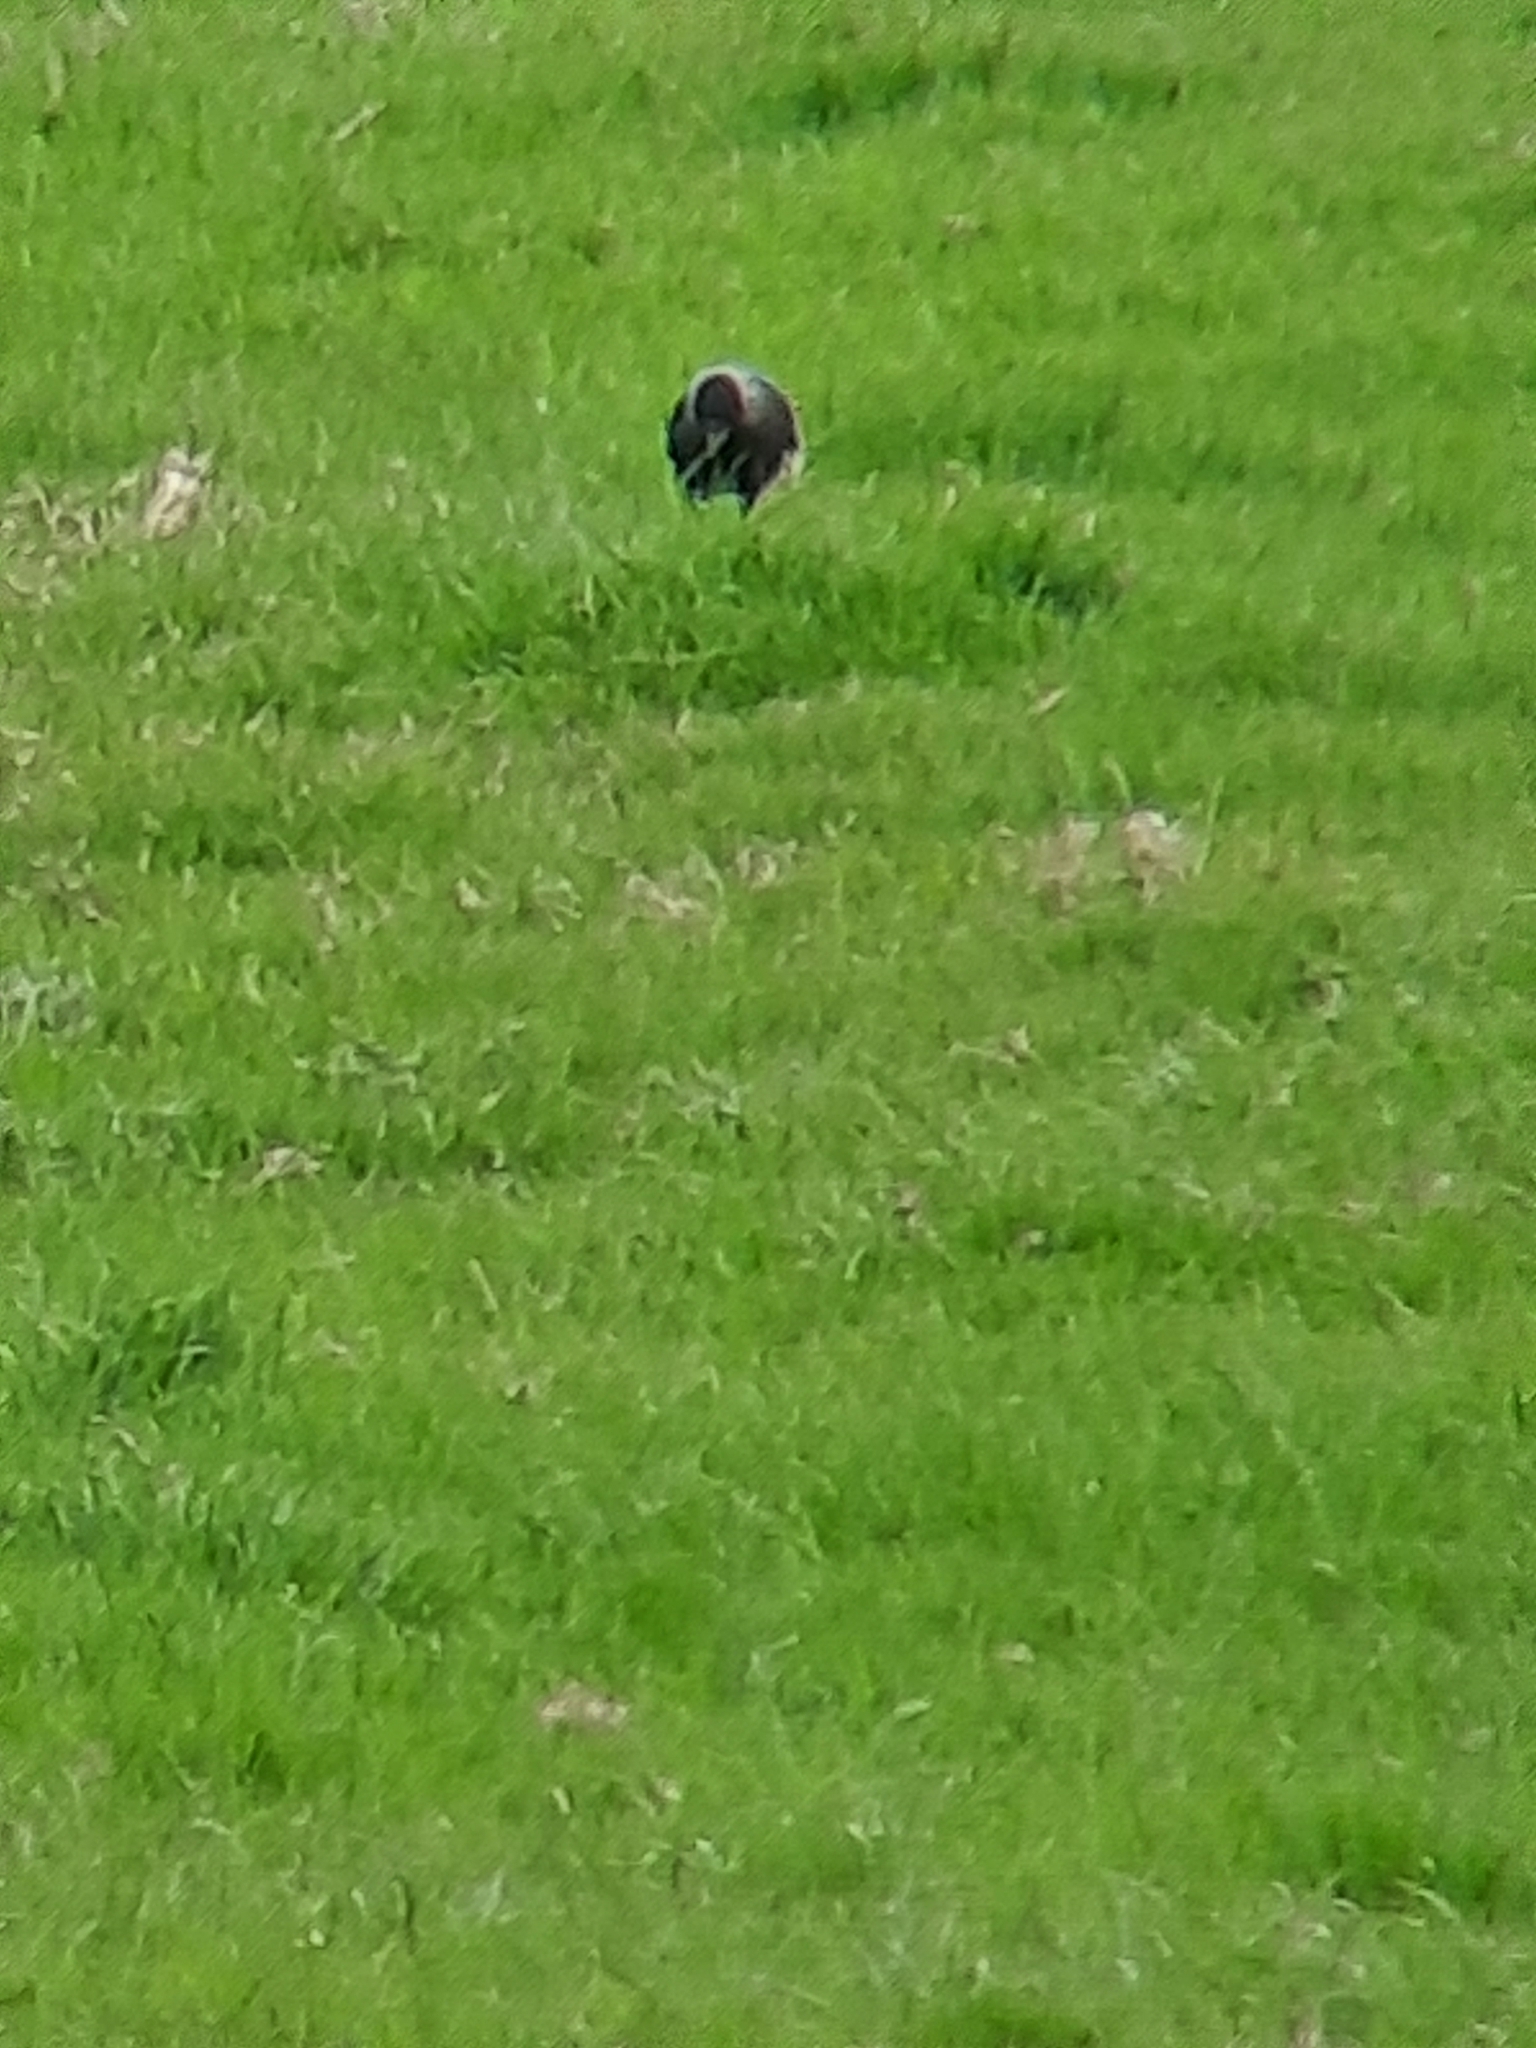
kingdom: Animalia
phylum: Chordata
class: Aves
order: Passeriformes
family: Corvidae
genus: Coloeus
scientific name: Coloeus monedula
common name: Western jackdaw
